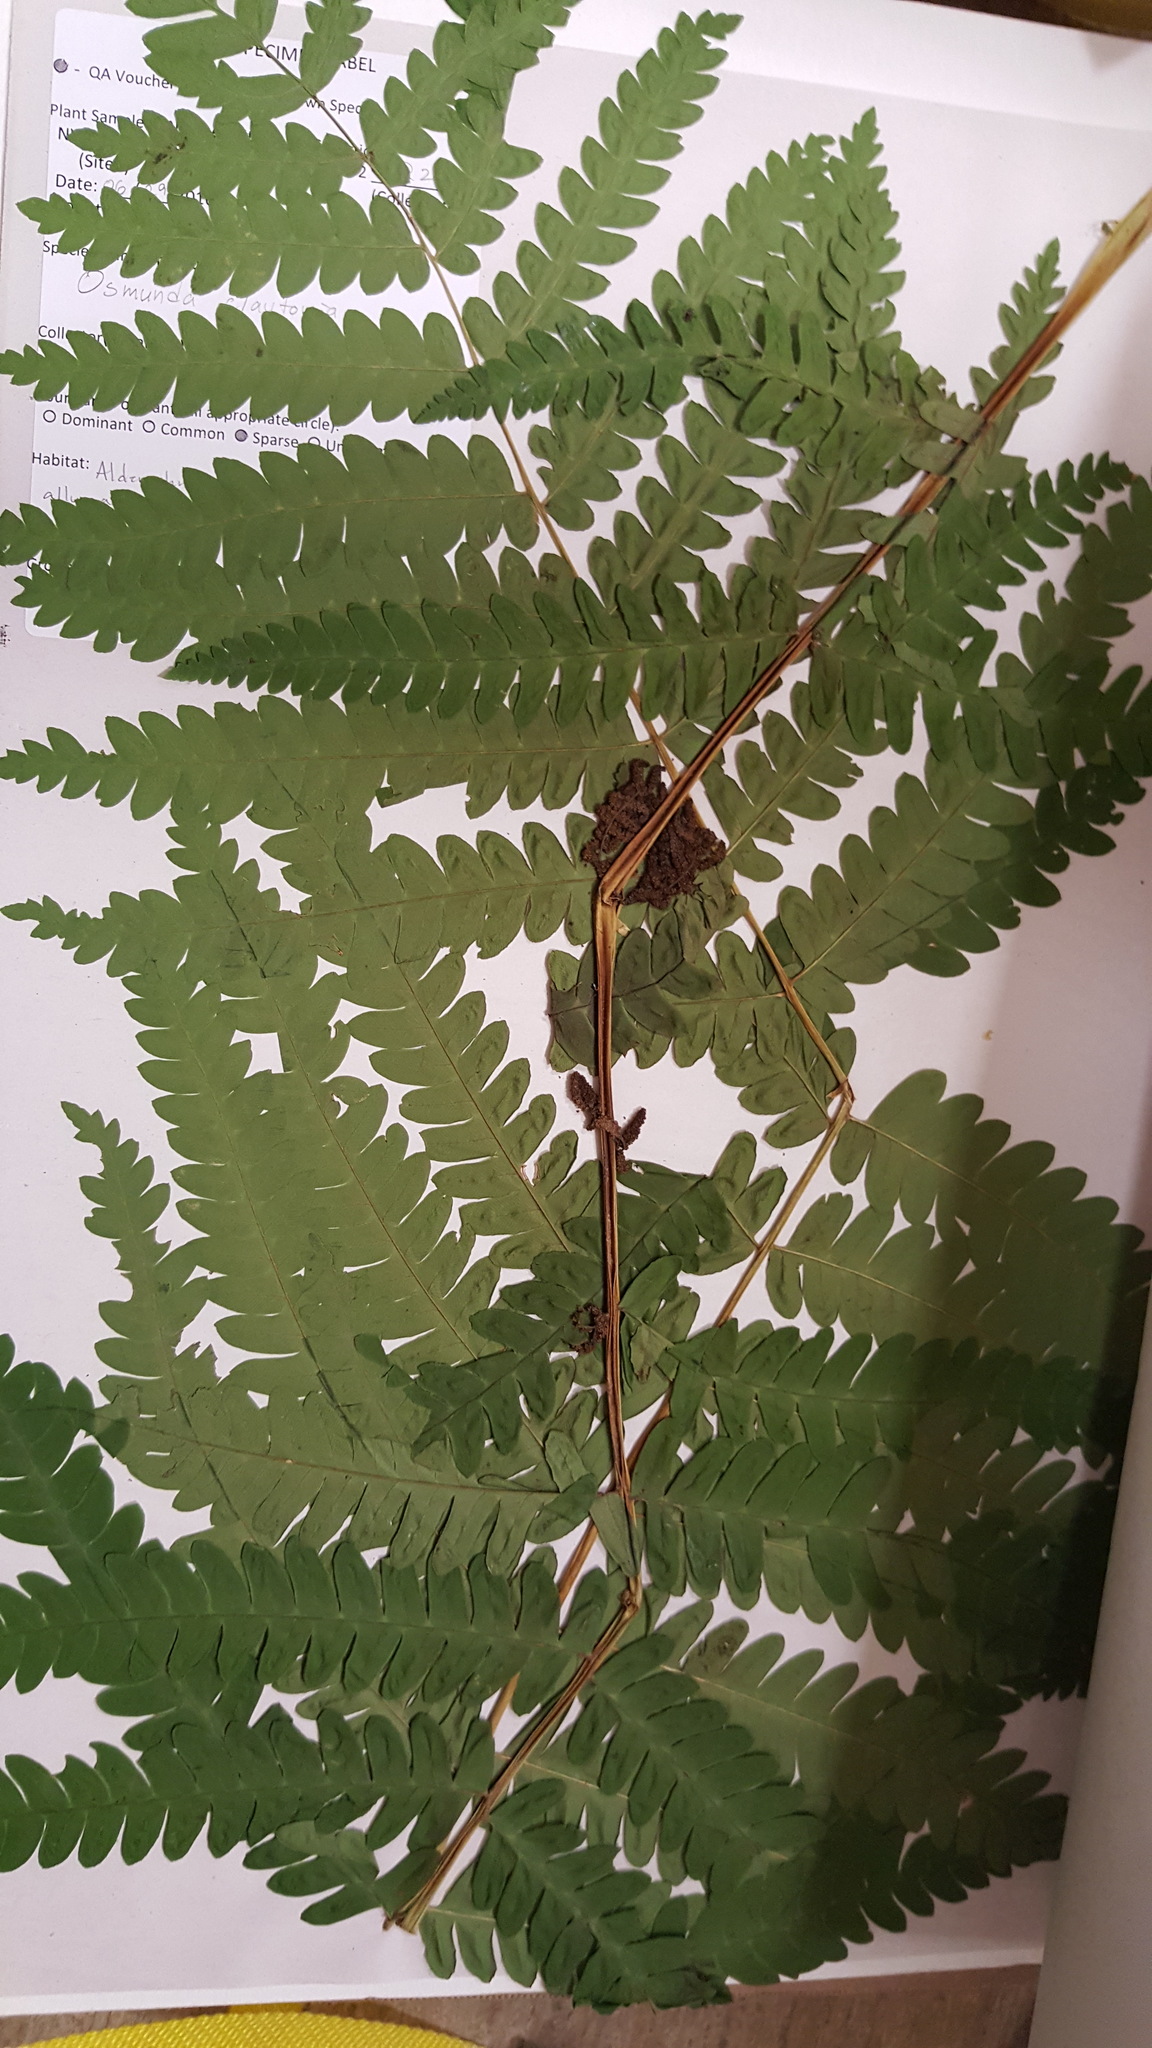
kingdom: Plantae
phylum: Tracheophyta
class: Polypodiopsida
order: Osmundales
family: Osmundaceae
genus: Claytosmunda
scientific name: Claytosmunda claytoniana
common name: Clayton's fern
